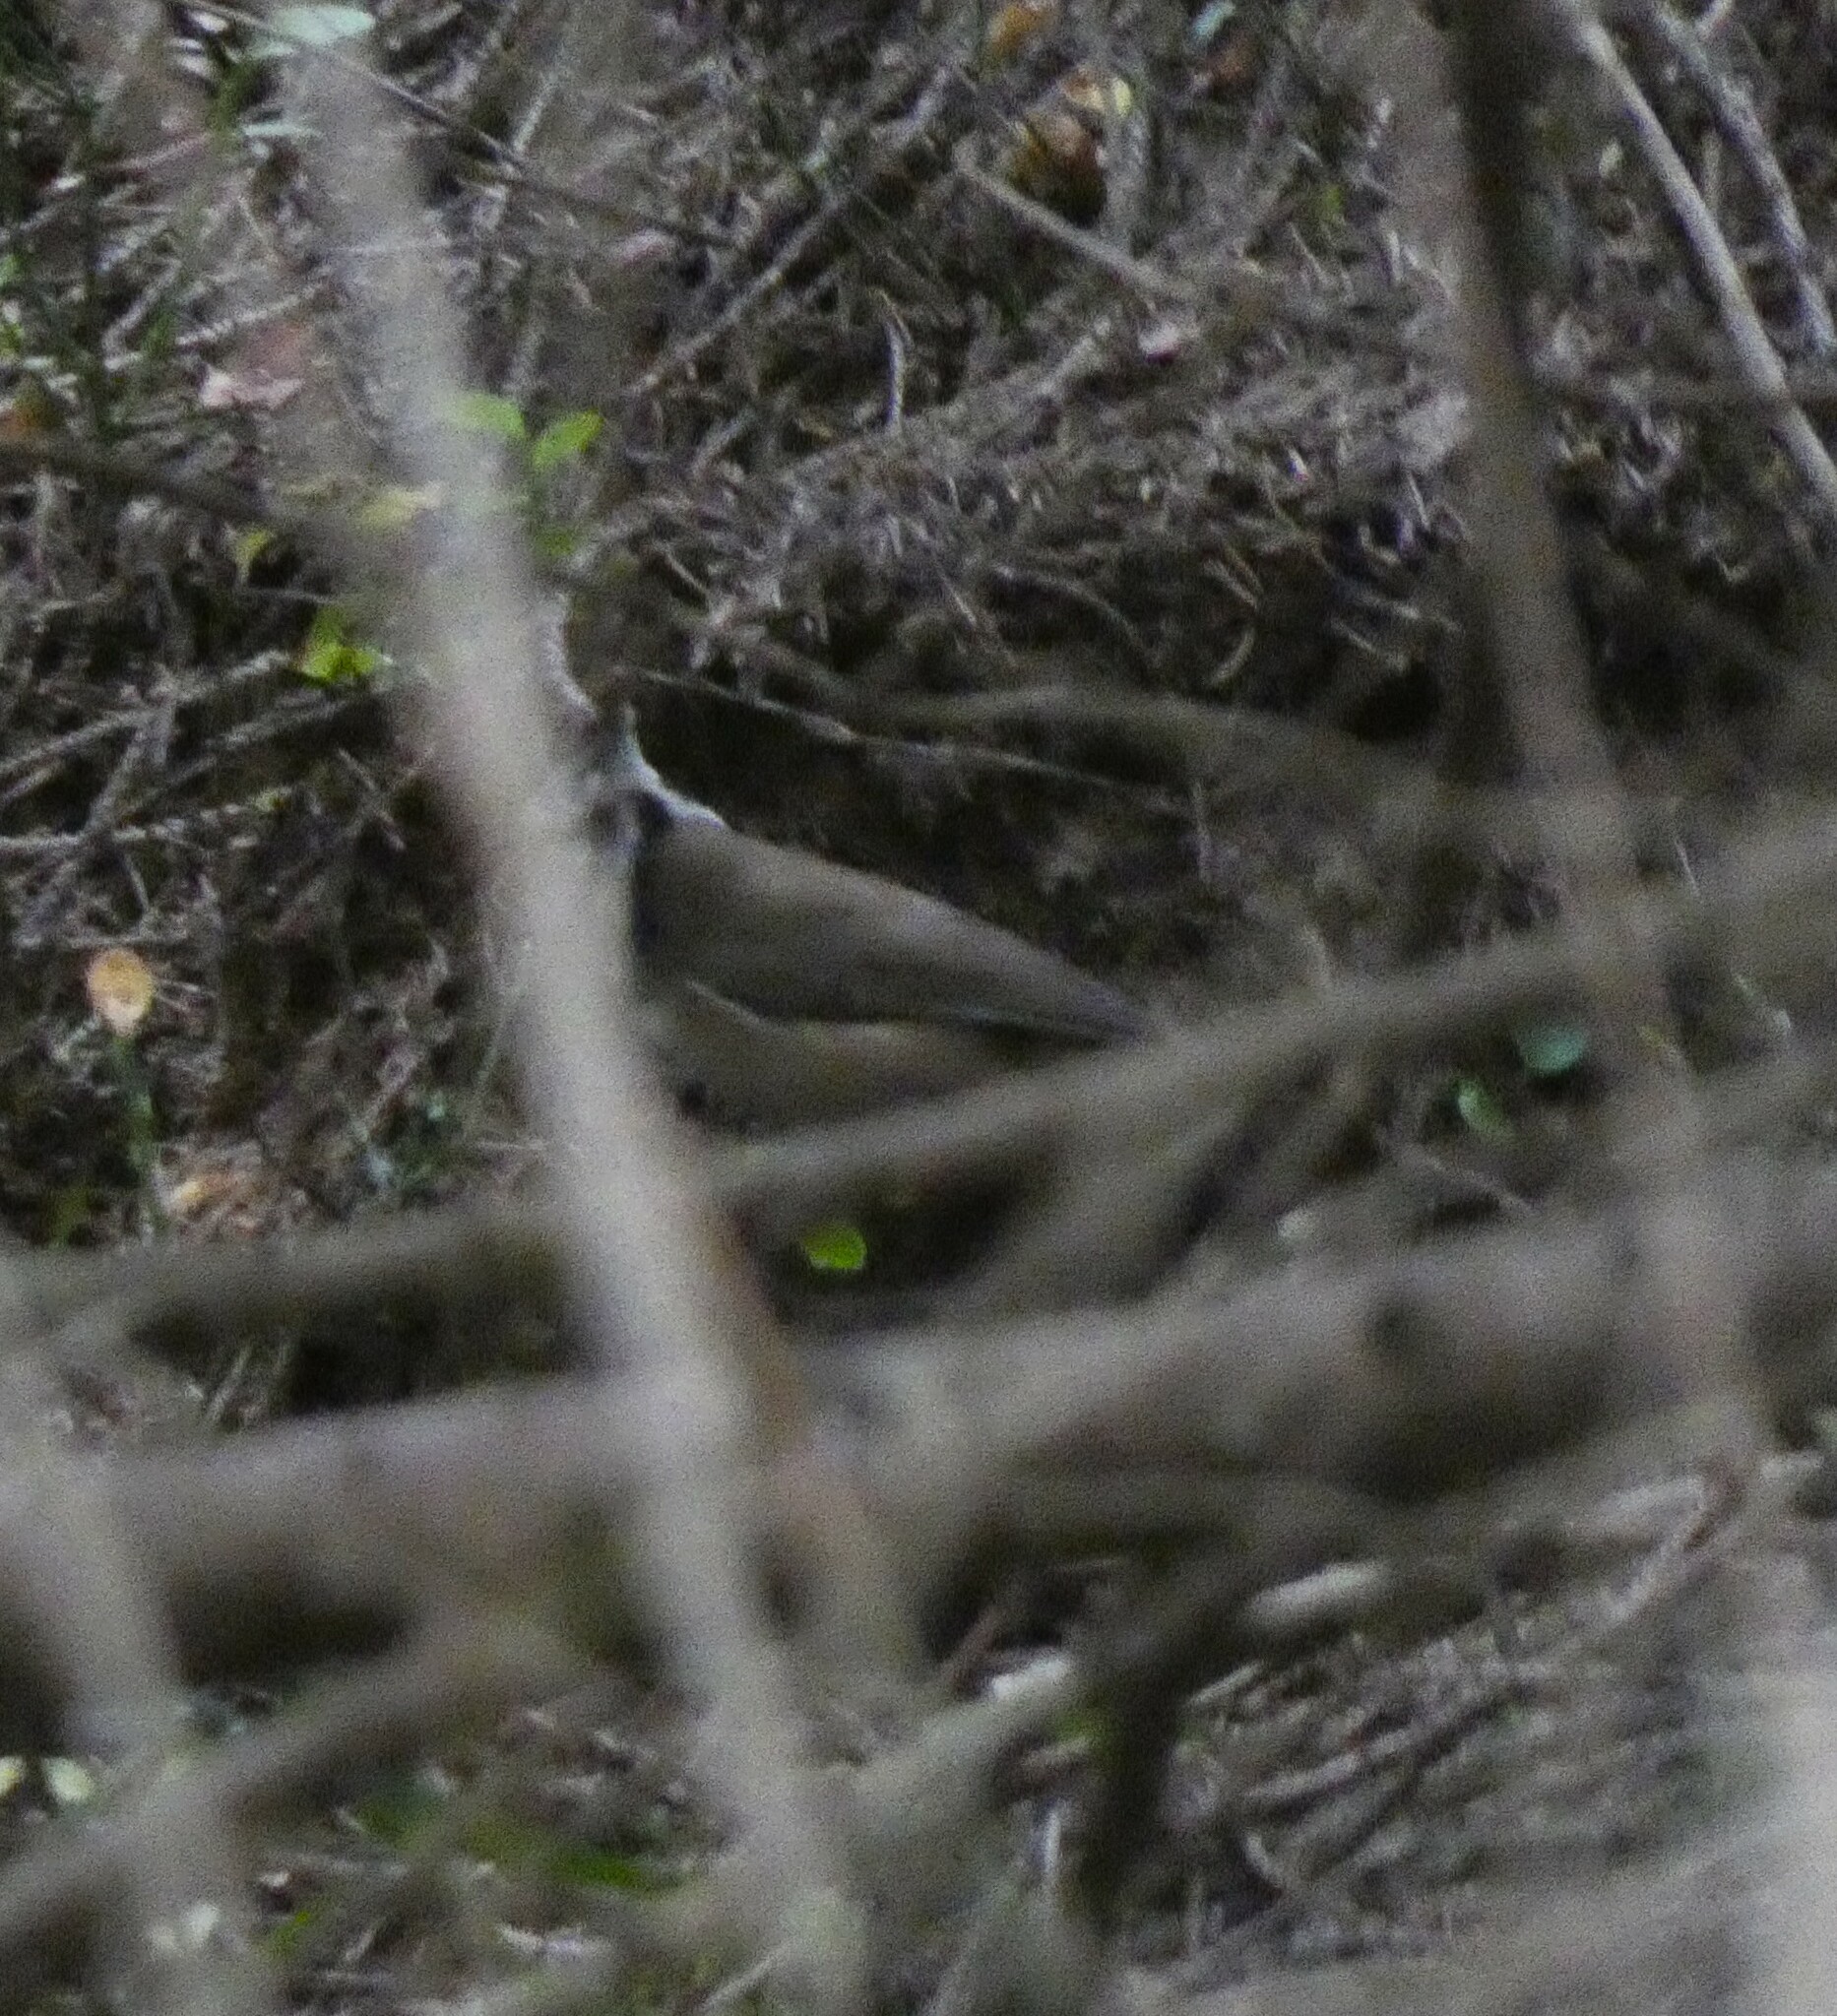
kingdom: Animalia
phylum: Chordata
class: Aves
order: Passeriformes
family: Paridae
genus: Lophophanes
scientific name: Lophophanes cristatus
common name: European crested tit
